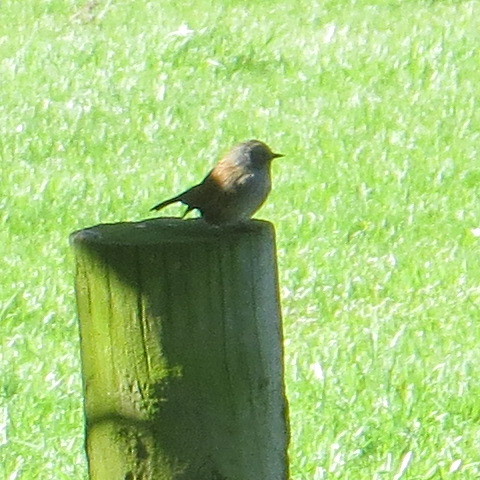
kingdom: Animalia
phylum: Chordata
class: Aves
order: Passeriformes
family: Prunellidae
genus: Prunella
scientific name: Prunella modularis
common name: Dunnock
